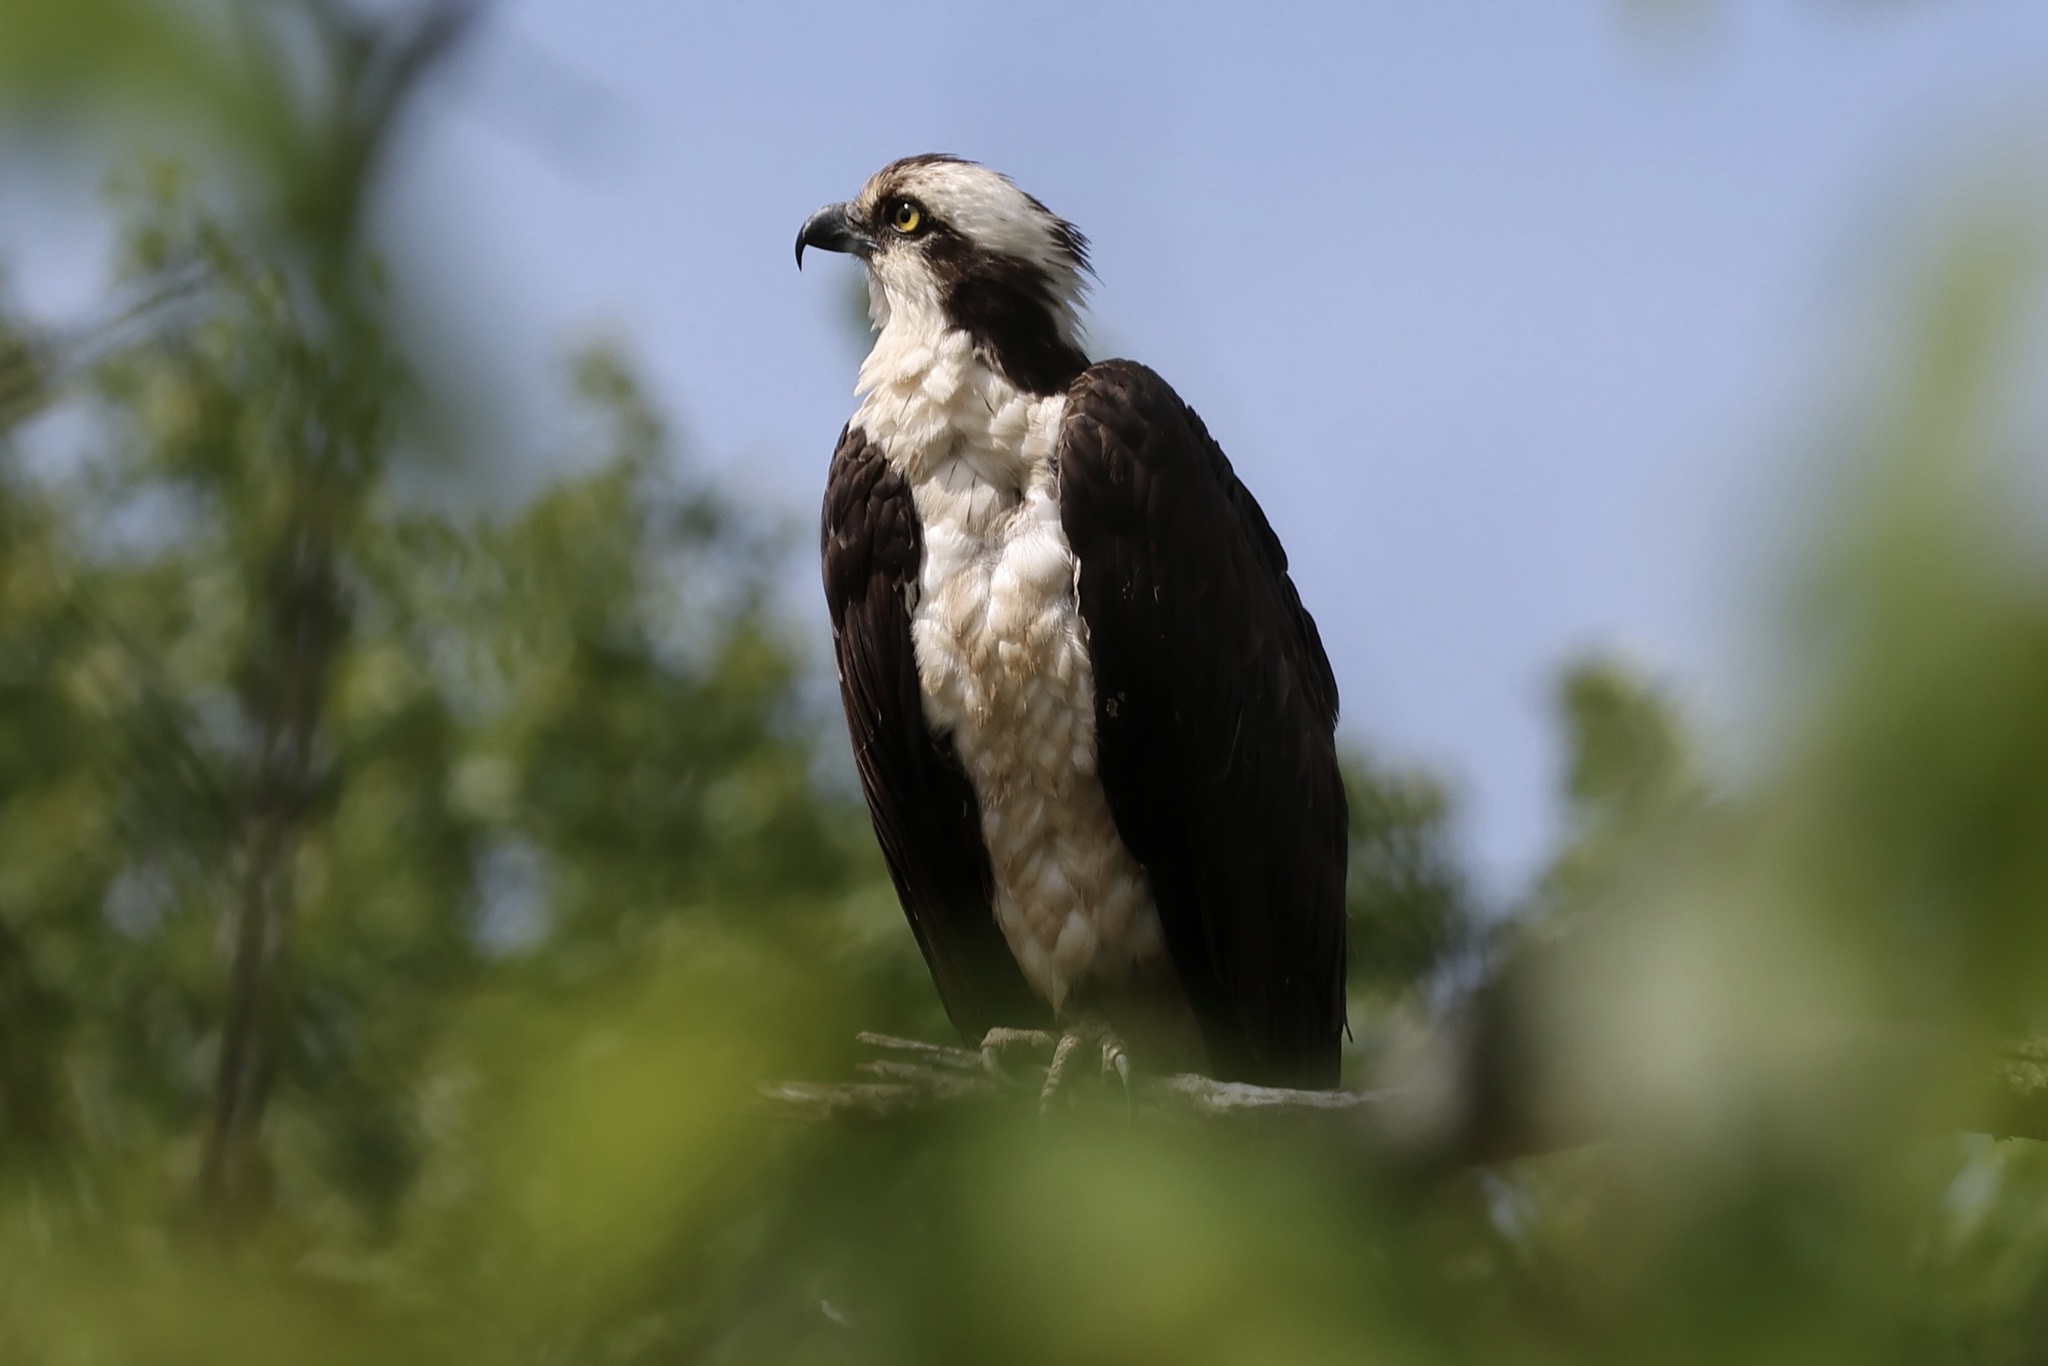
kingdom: Animalia
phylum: Chordata
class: Aves
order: Accipitriformes
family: Pandionidae
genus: Pandion
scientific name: Pandion haliaetus
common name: Osprey
